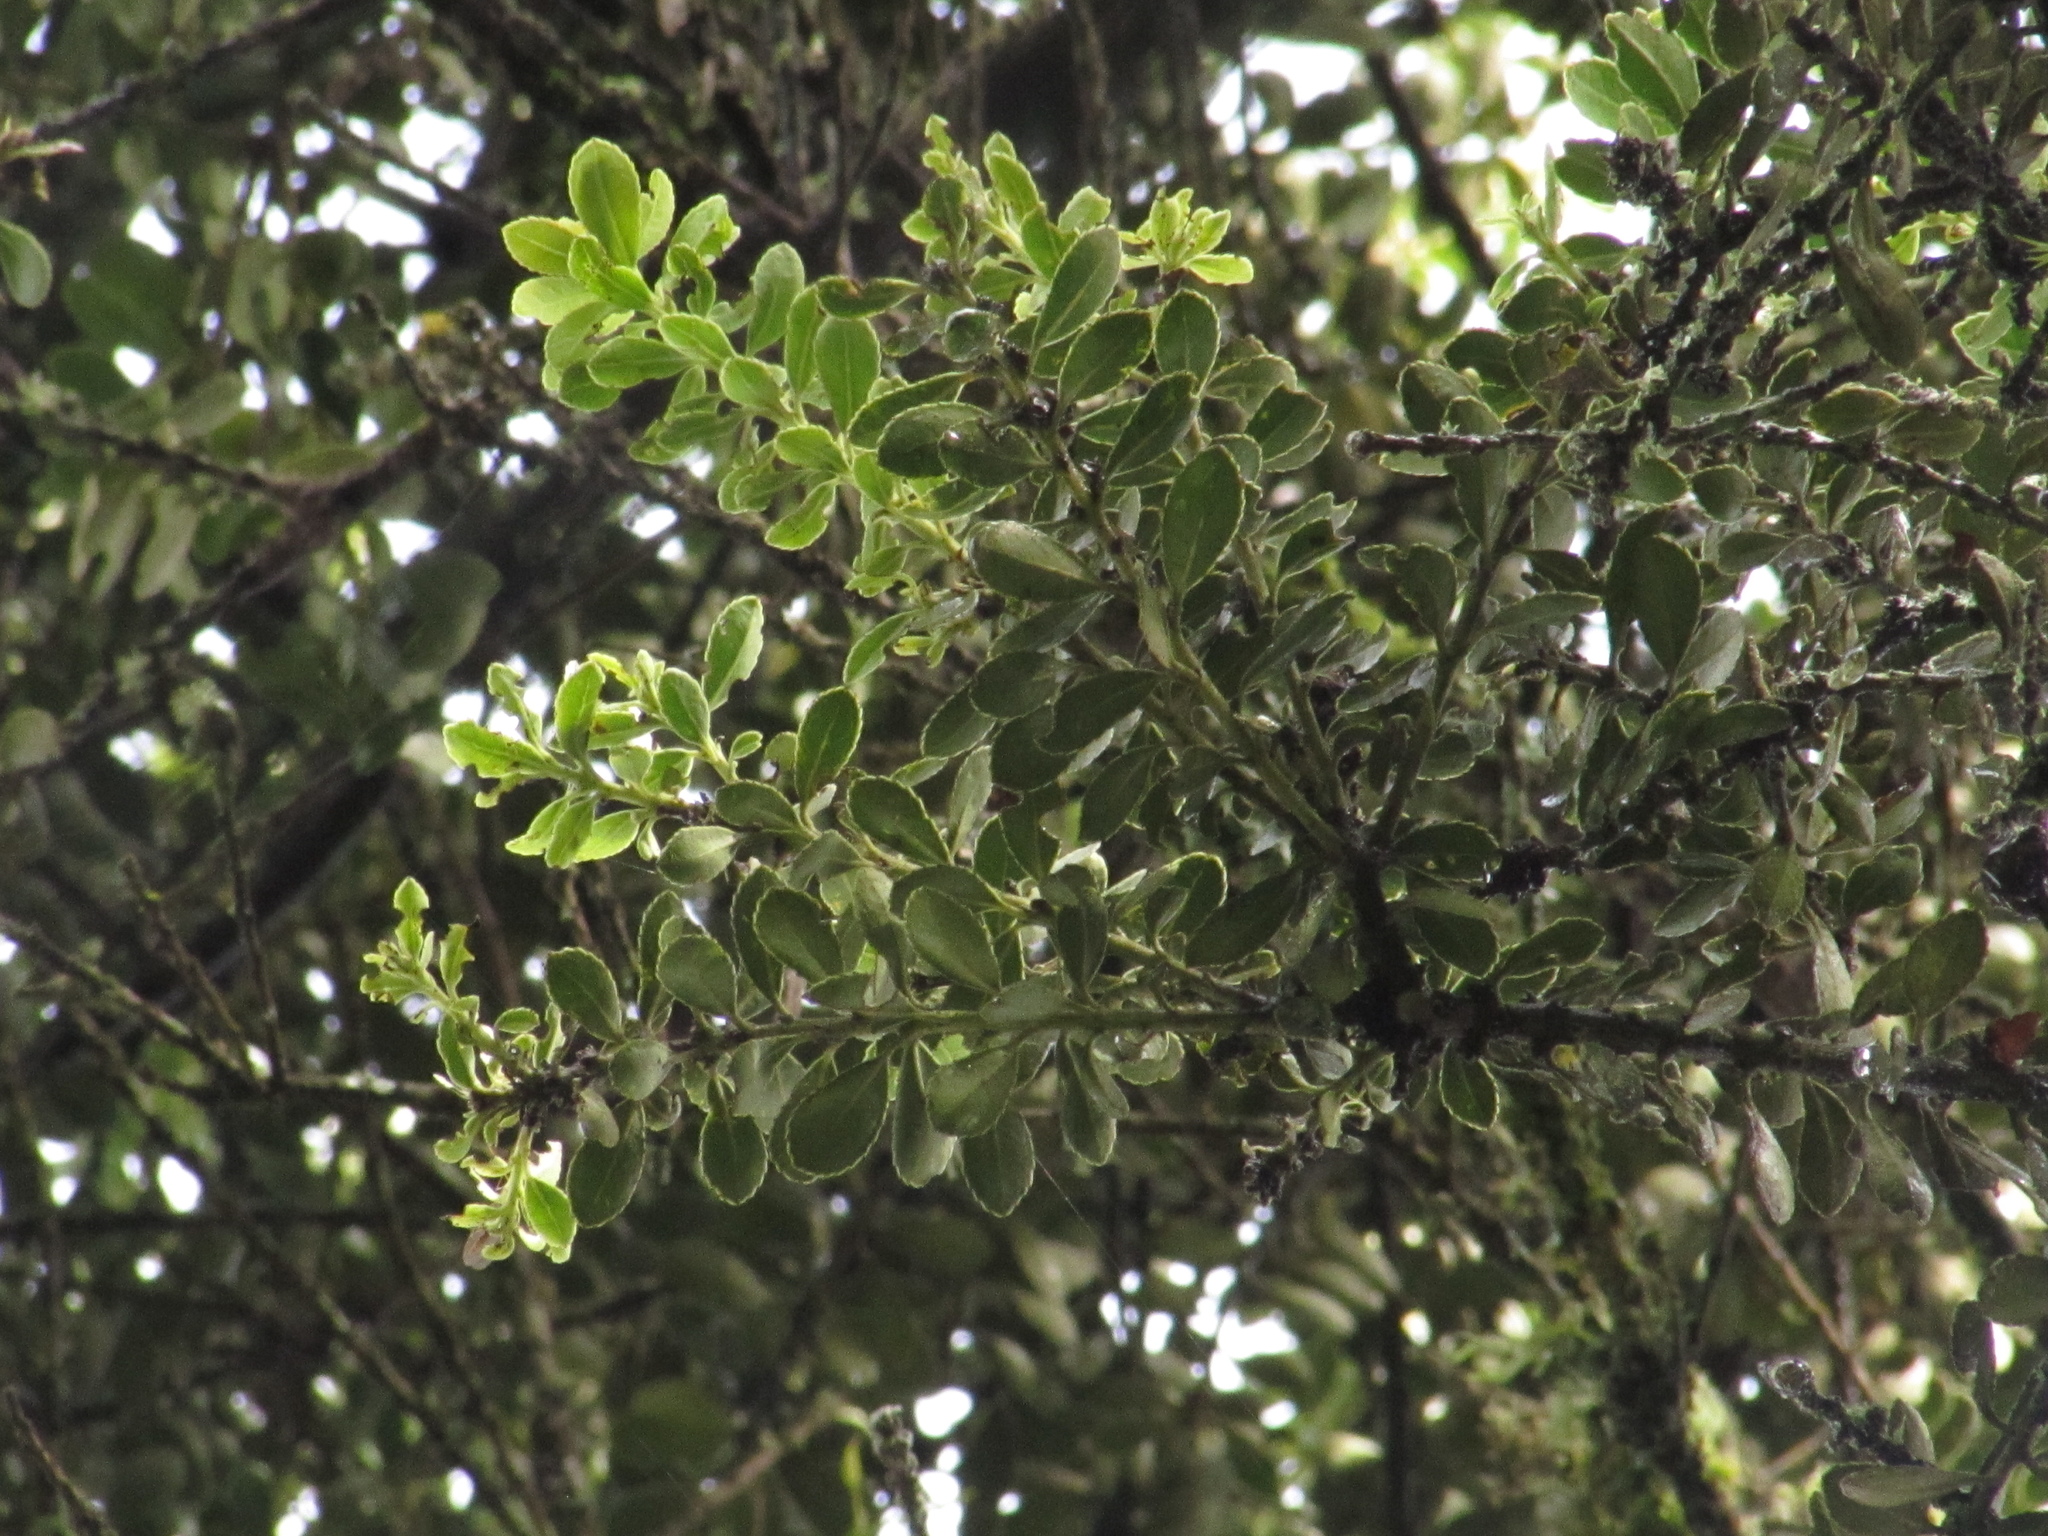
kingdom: Plantae
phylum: Tracheophyta
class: Magnoliopsida
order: Aquifoliales
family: Aquifoliaceae
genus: Ilex
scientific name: Ilex microphylla
